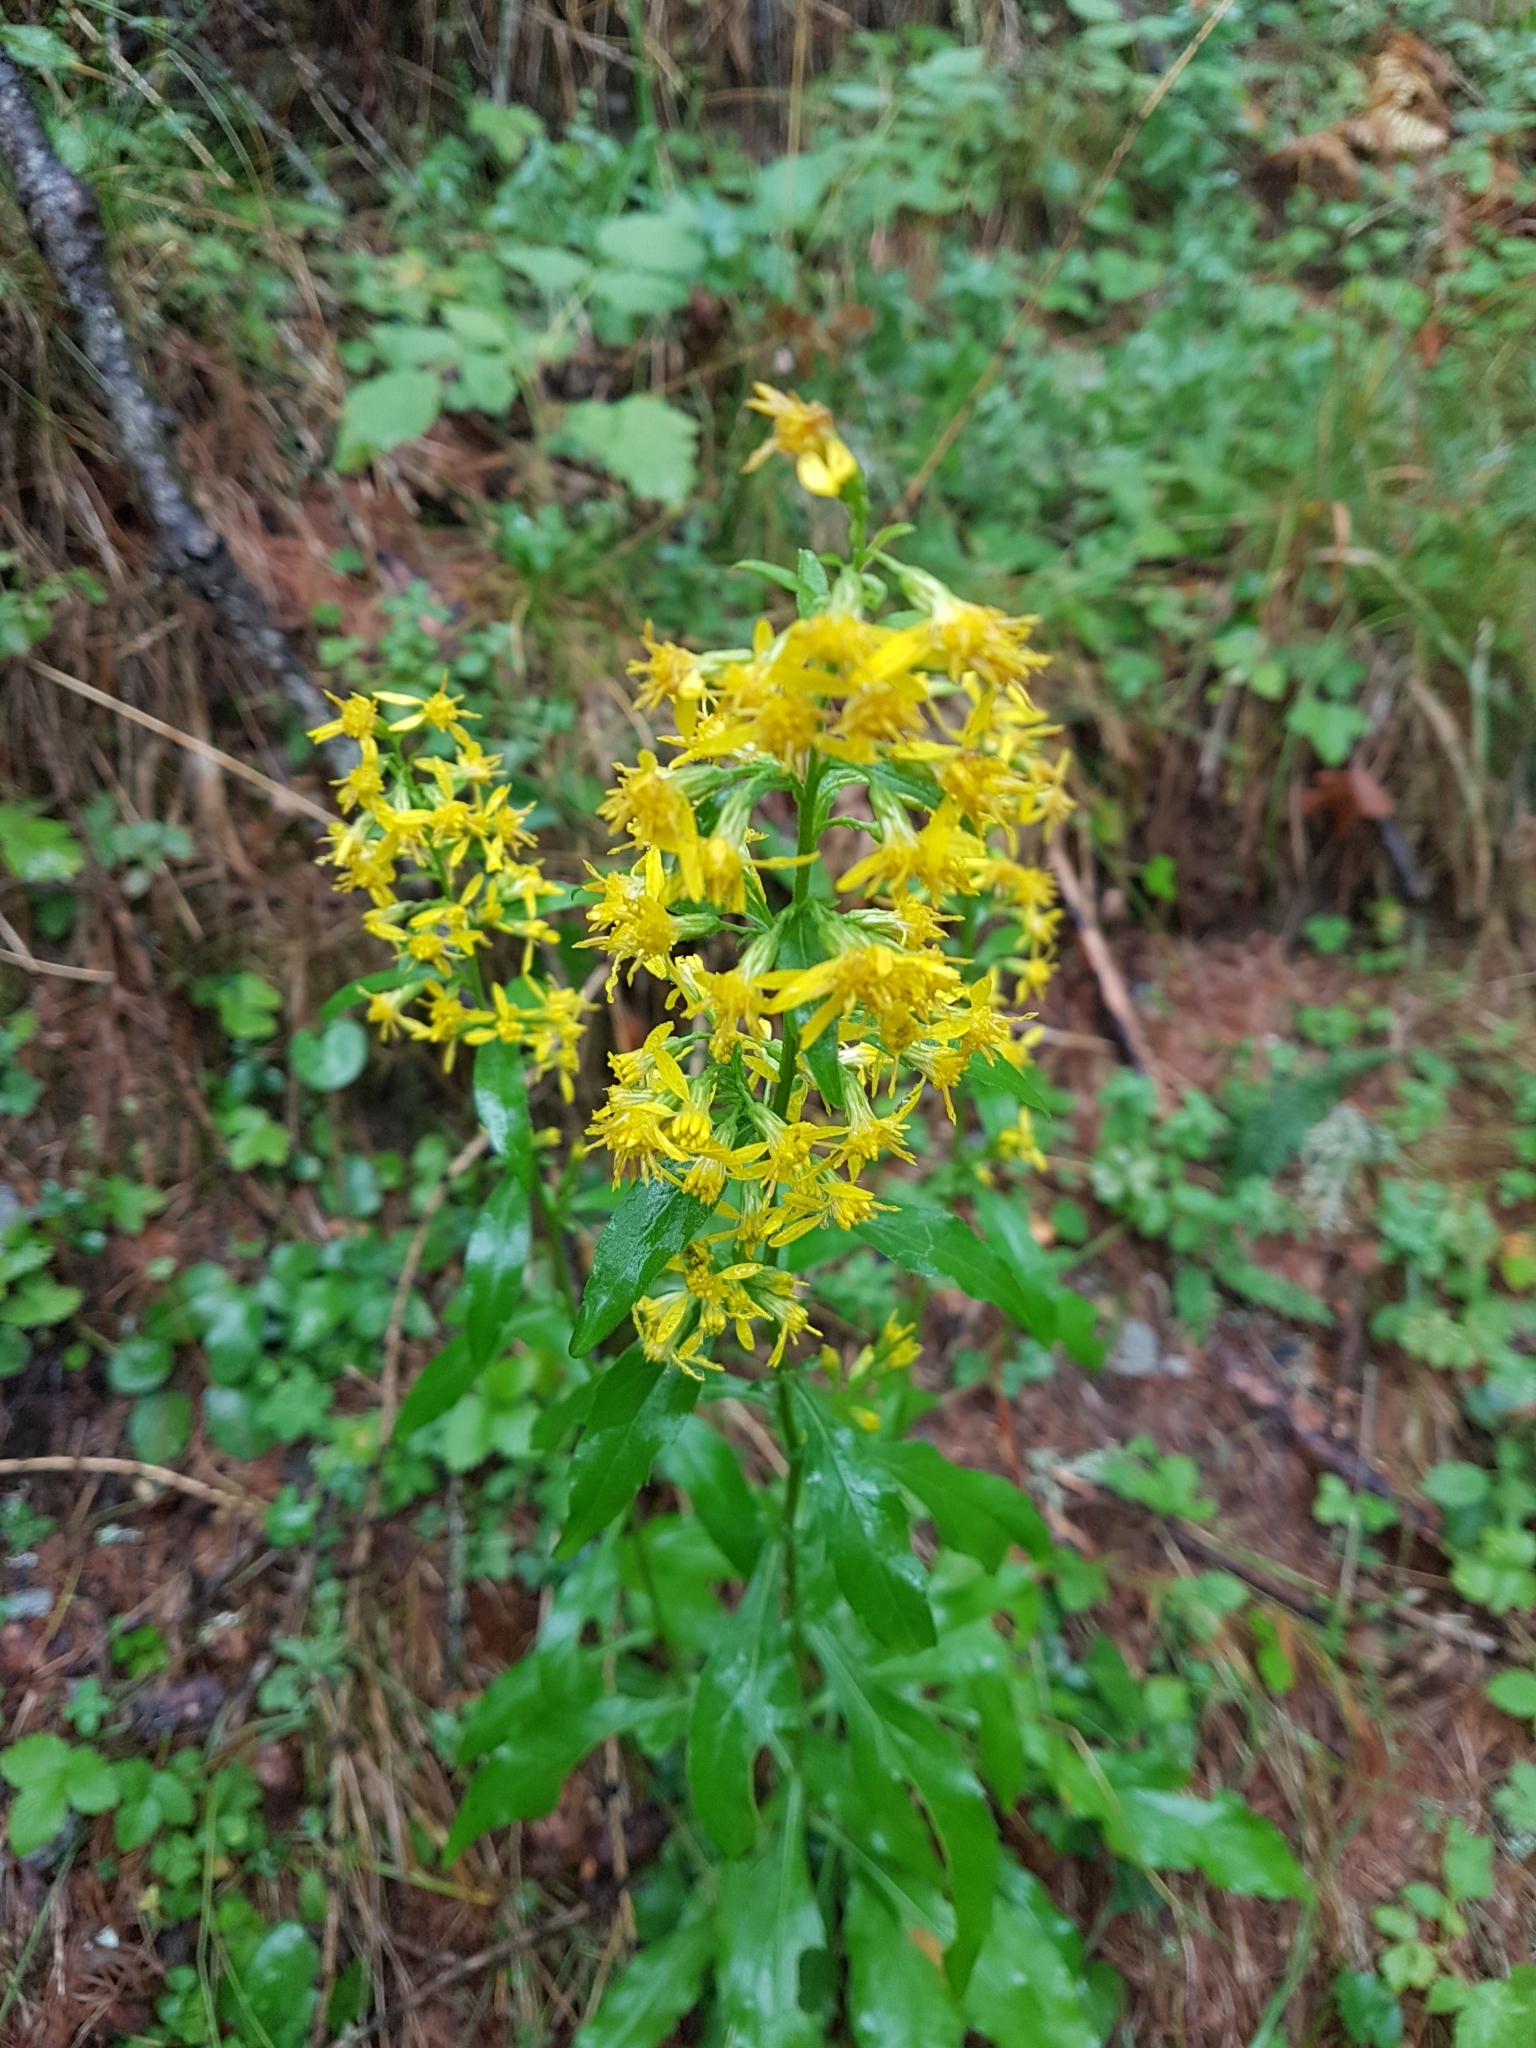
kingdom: Plantae
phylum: Tracheophyta
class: Magnoliopsida
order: Asterales
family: Asteraceae
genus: Solidago
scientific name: Solidago virgaurea
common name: Goldenrod
